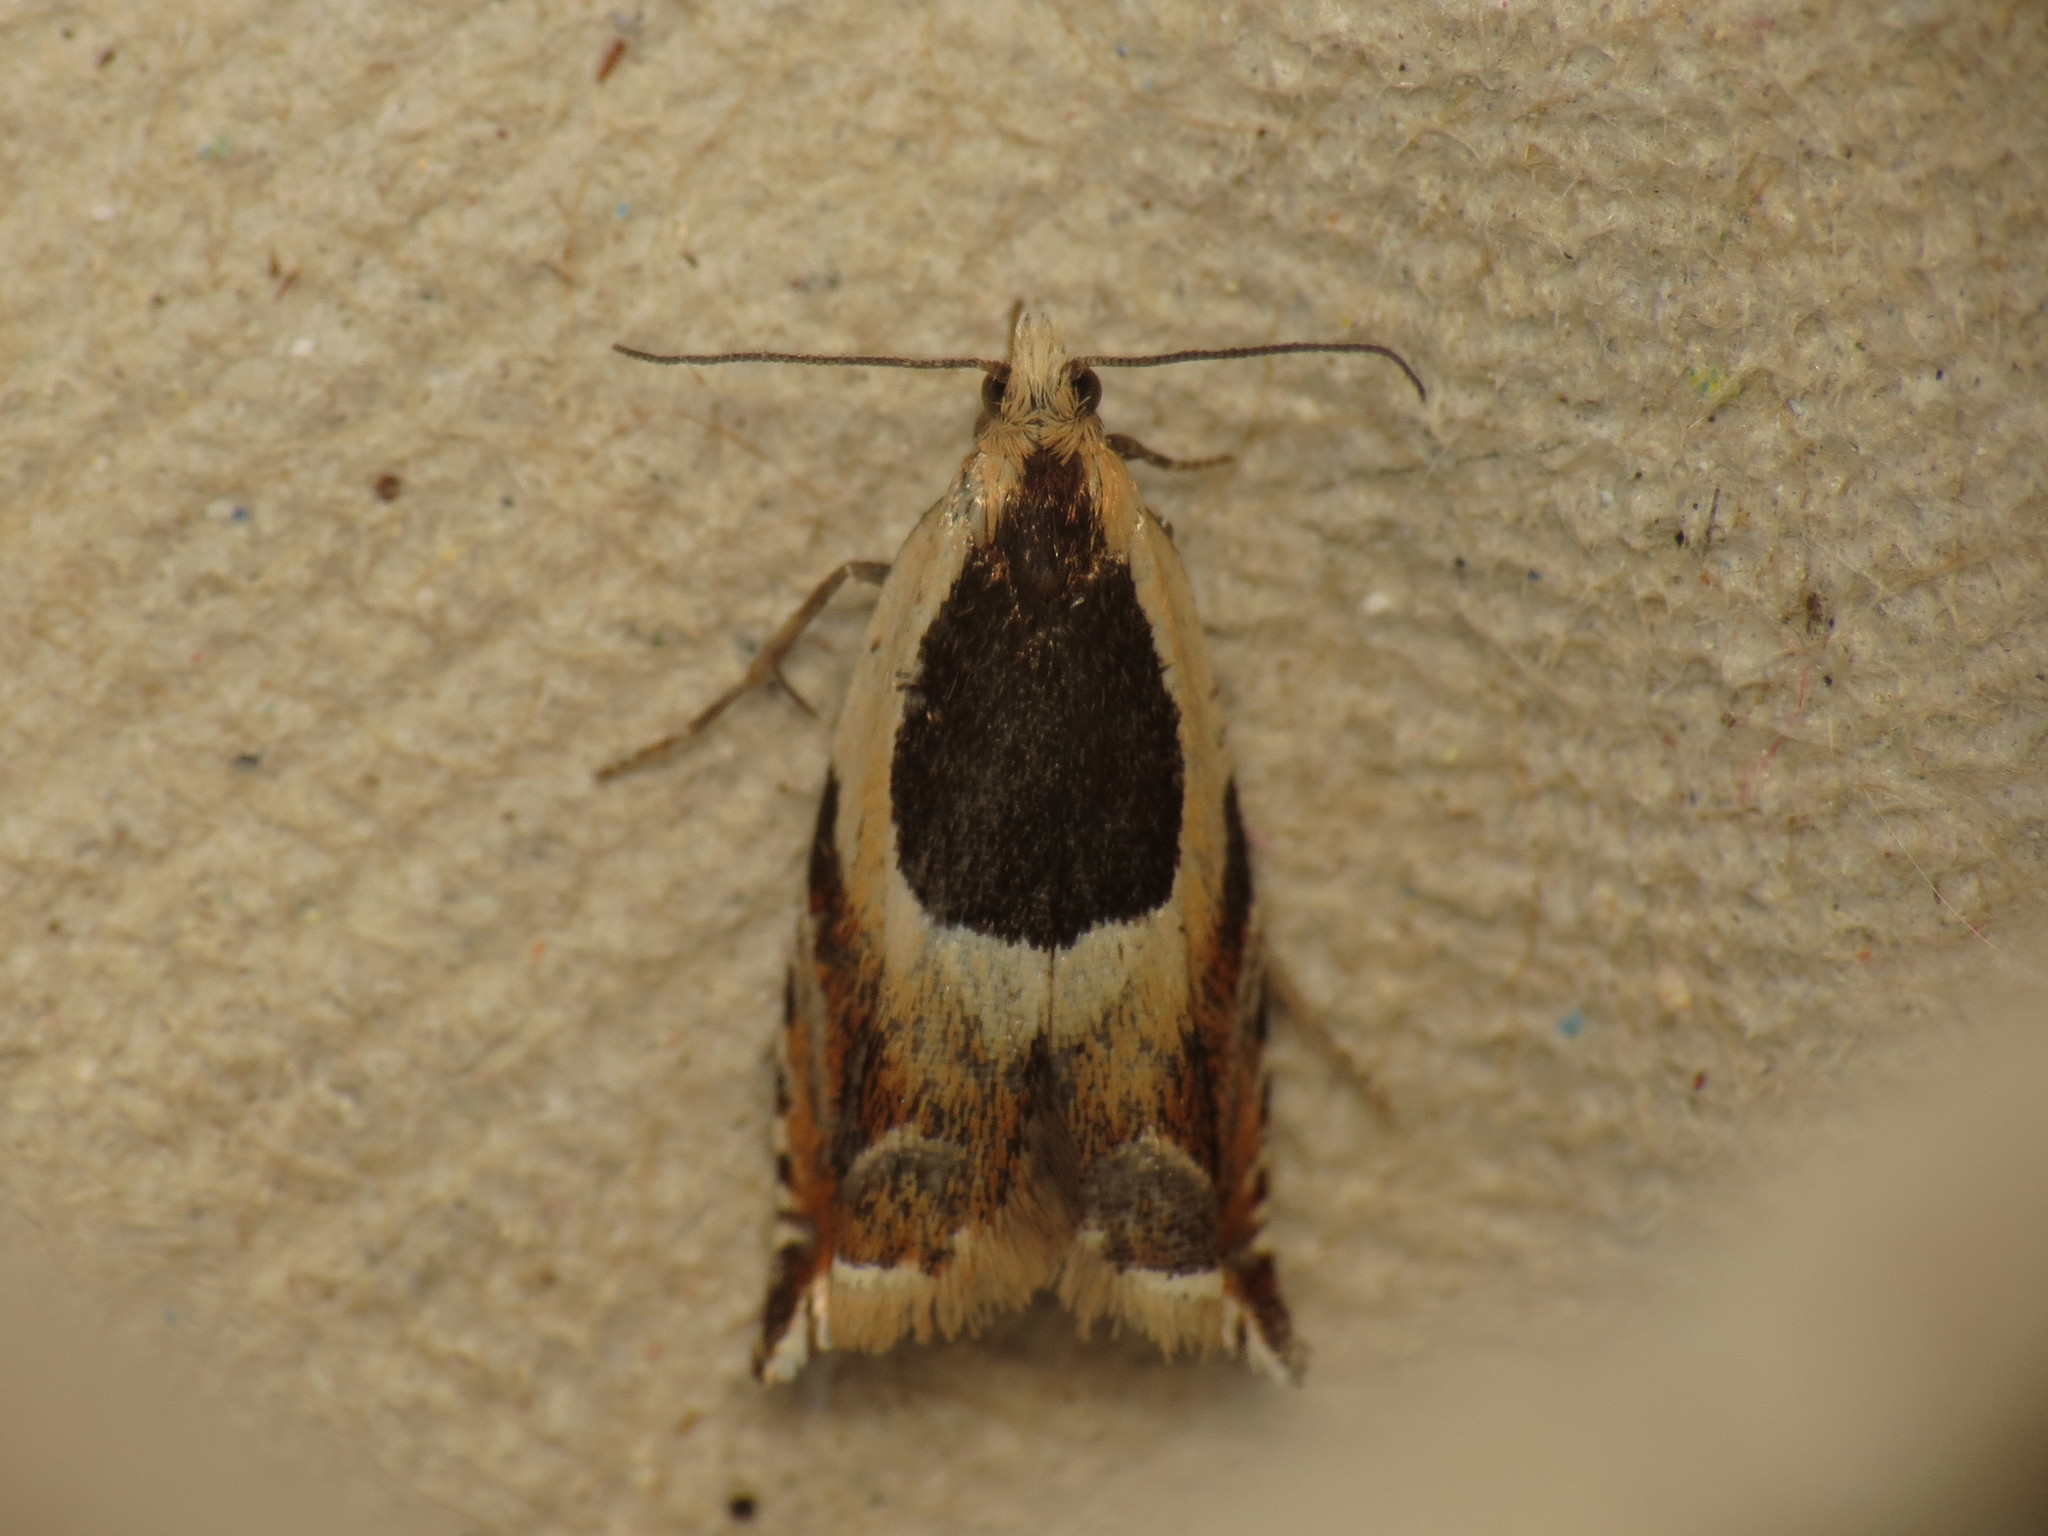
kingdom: Animalia
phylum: Arthropoda
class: Insecta
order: Lepidoptera
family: Tortricidae
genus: Ancylis
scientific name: Ancylis badiana
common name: Common roller
